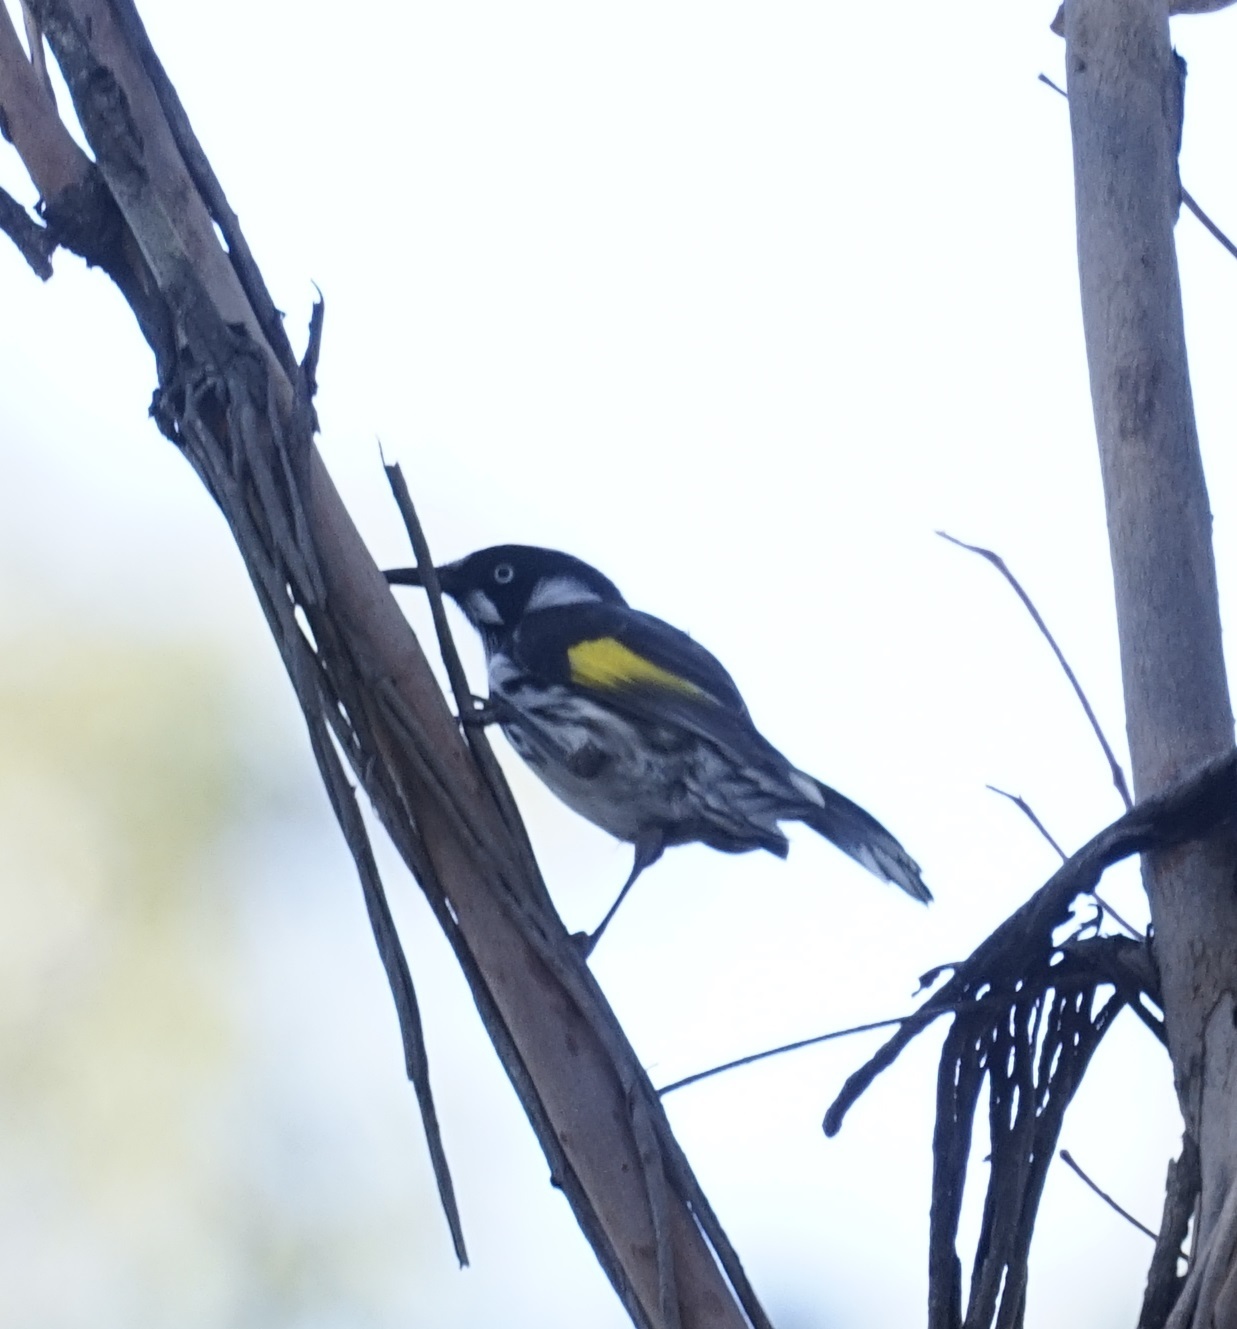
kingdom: Animalia
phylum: Chordata
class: Aves
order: Passeriformes
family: Meliphagidae
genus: Phylidonyris
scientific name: Phylidonyris novaehollandiae
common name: New holland honeyeater
